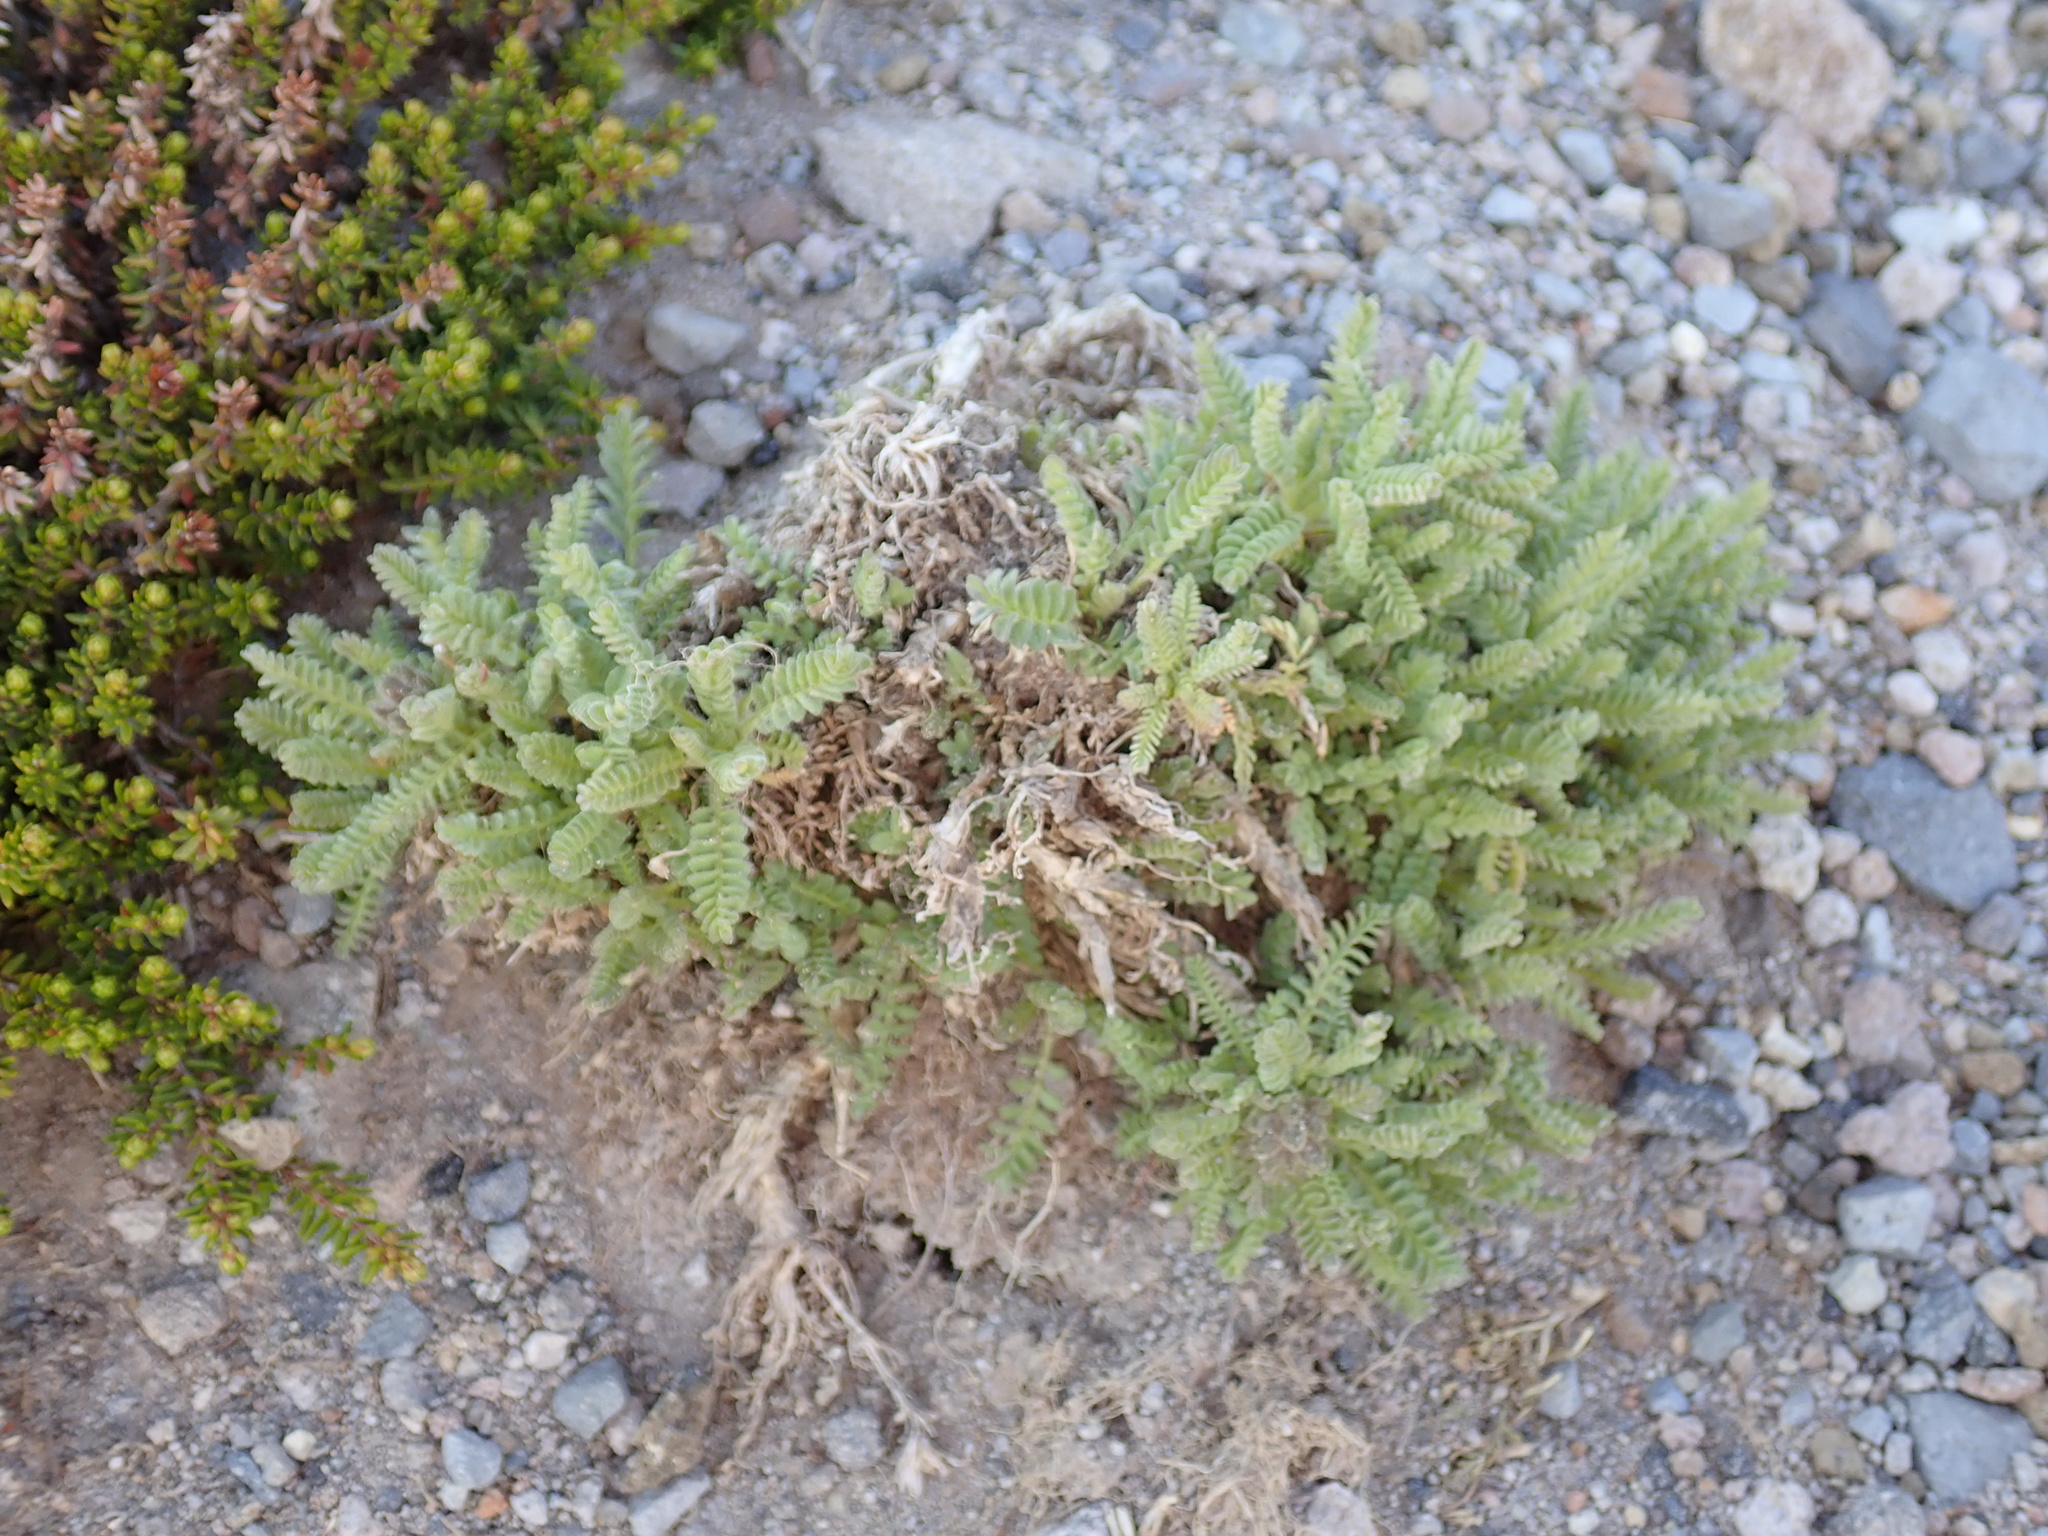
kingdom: Plantae
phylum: Tracheophyta
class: Magnoliopsida
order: Ericales
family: Polemoniaceae
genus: Polemonium
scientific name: Polemonium elegans
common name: Elegant jacob's-ladder
